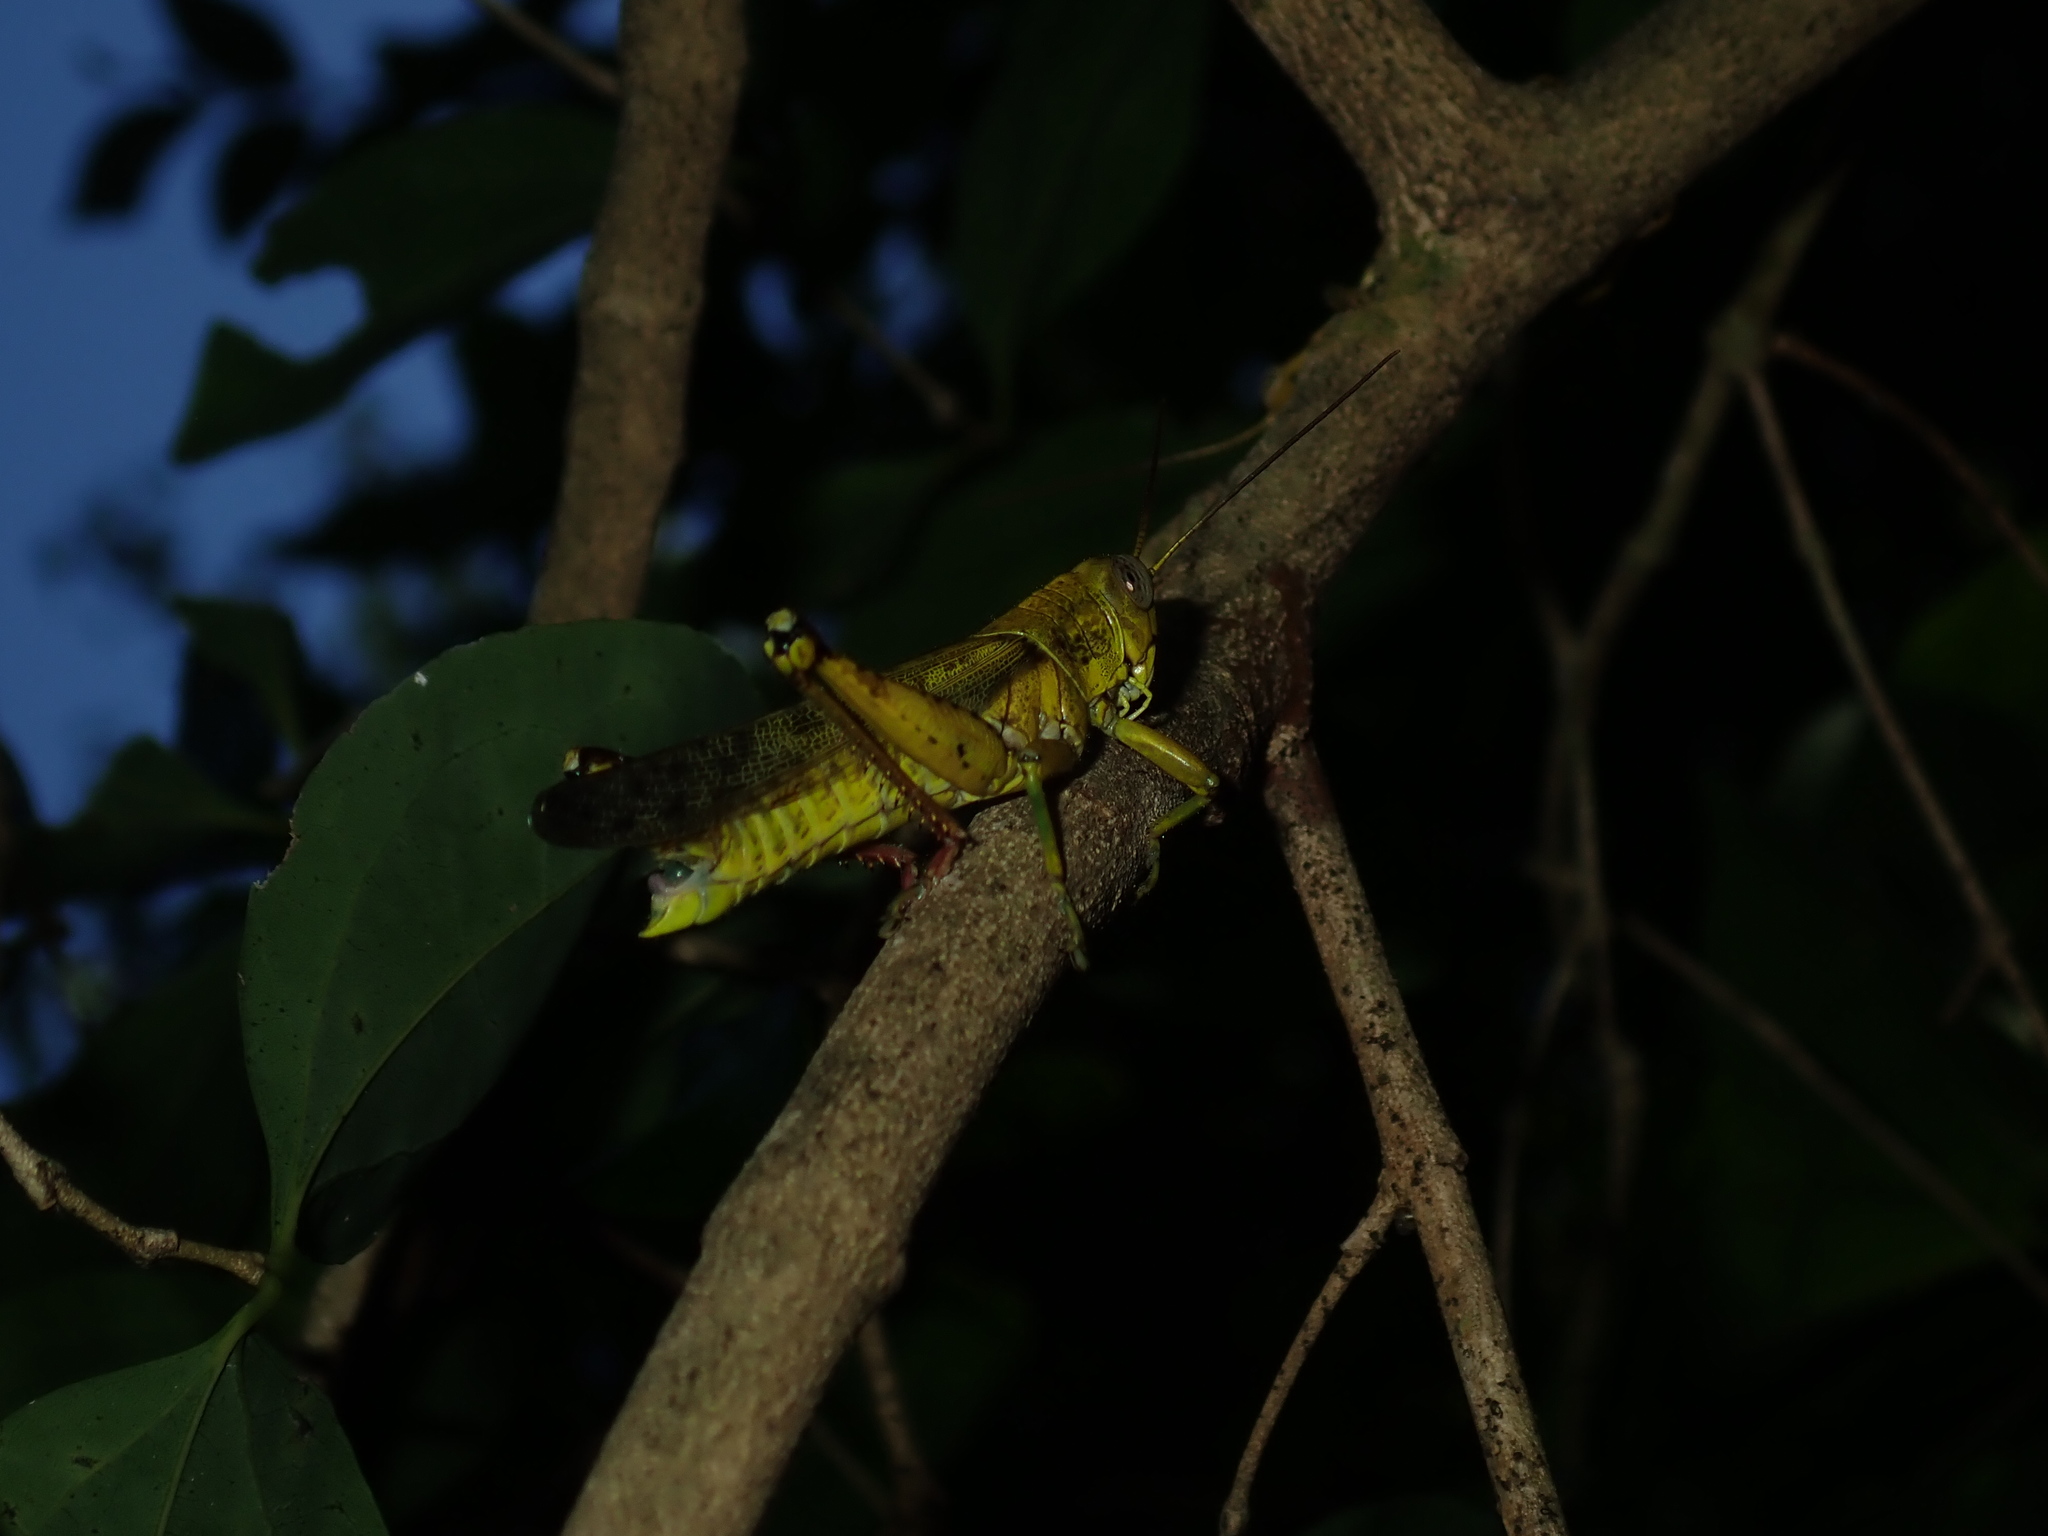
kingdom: Animalia
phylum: Arthropoda
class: Insecta
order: Orthoptera
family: Acrididae
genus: Valanga
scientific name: Valanga meleager
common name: Coastal valanga
